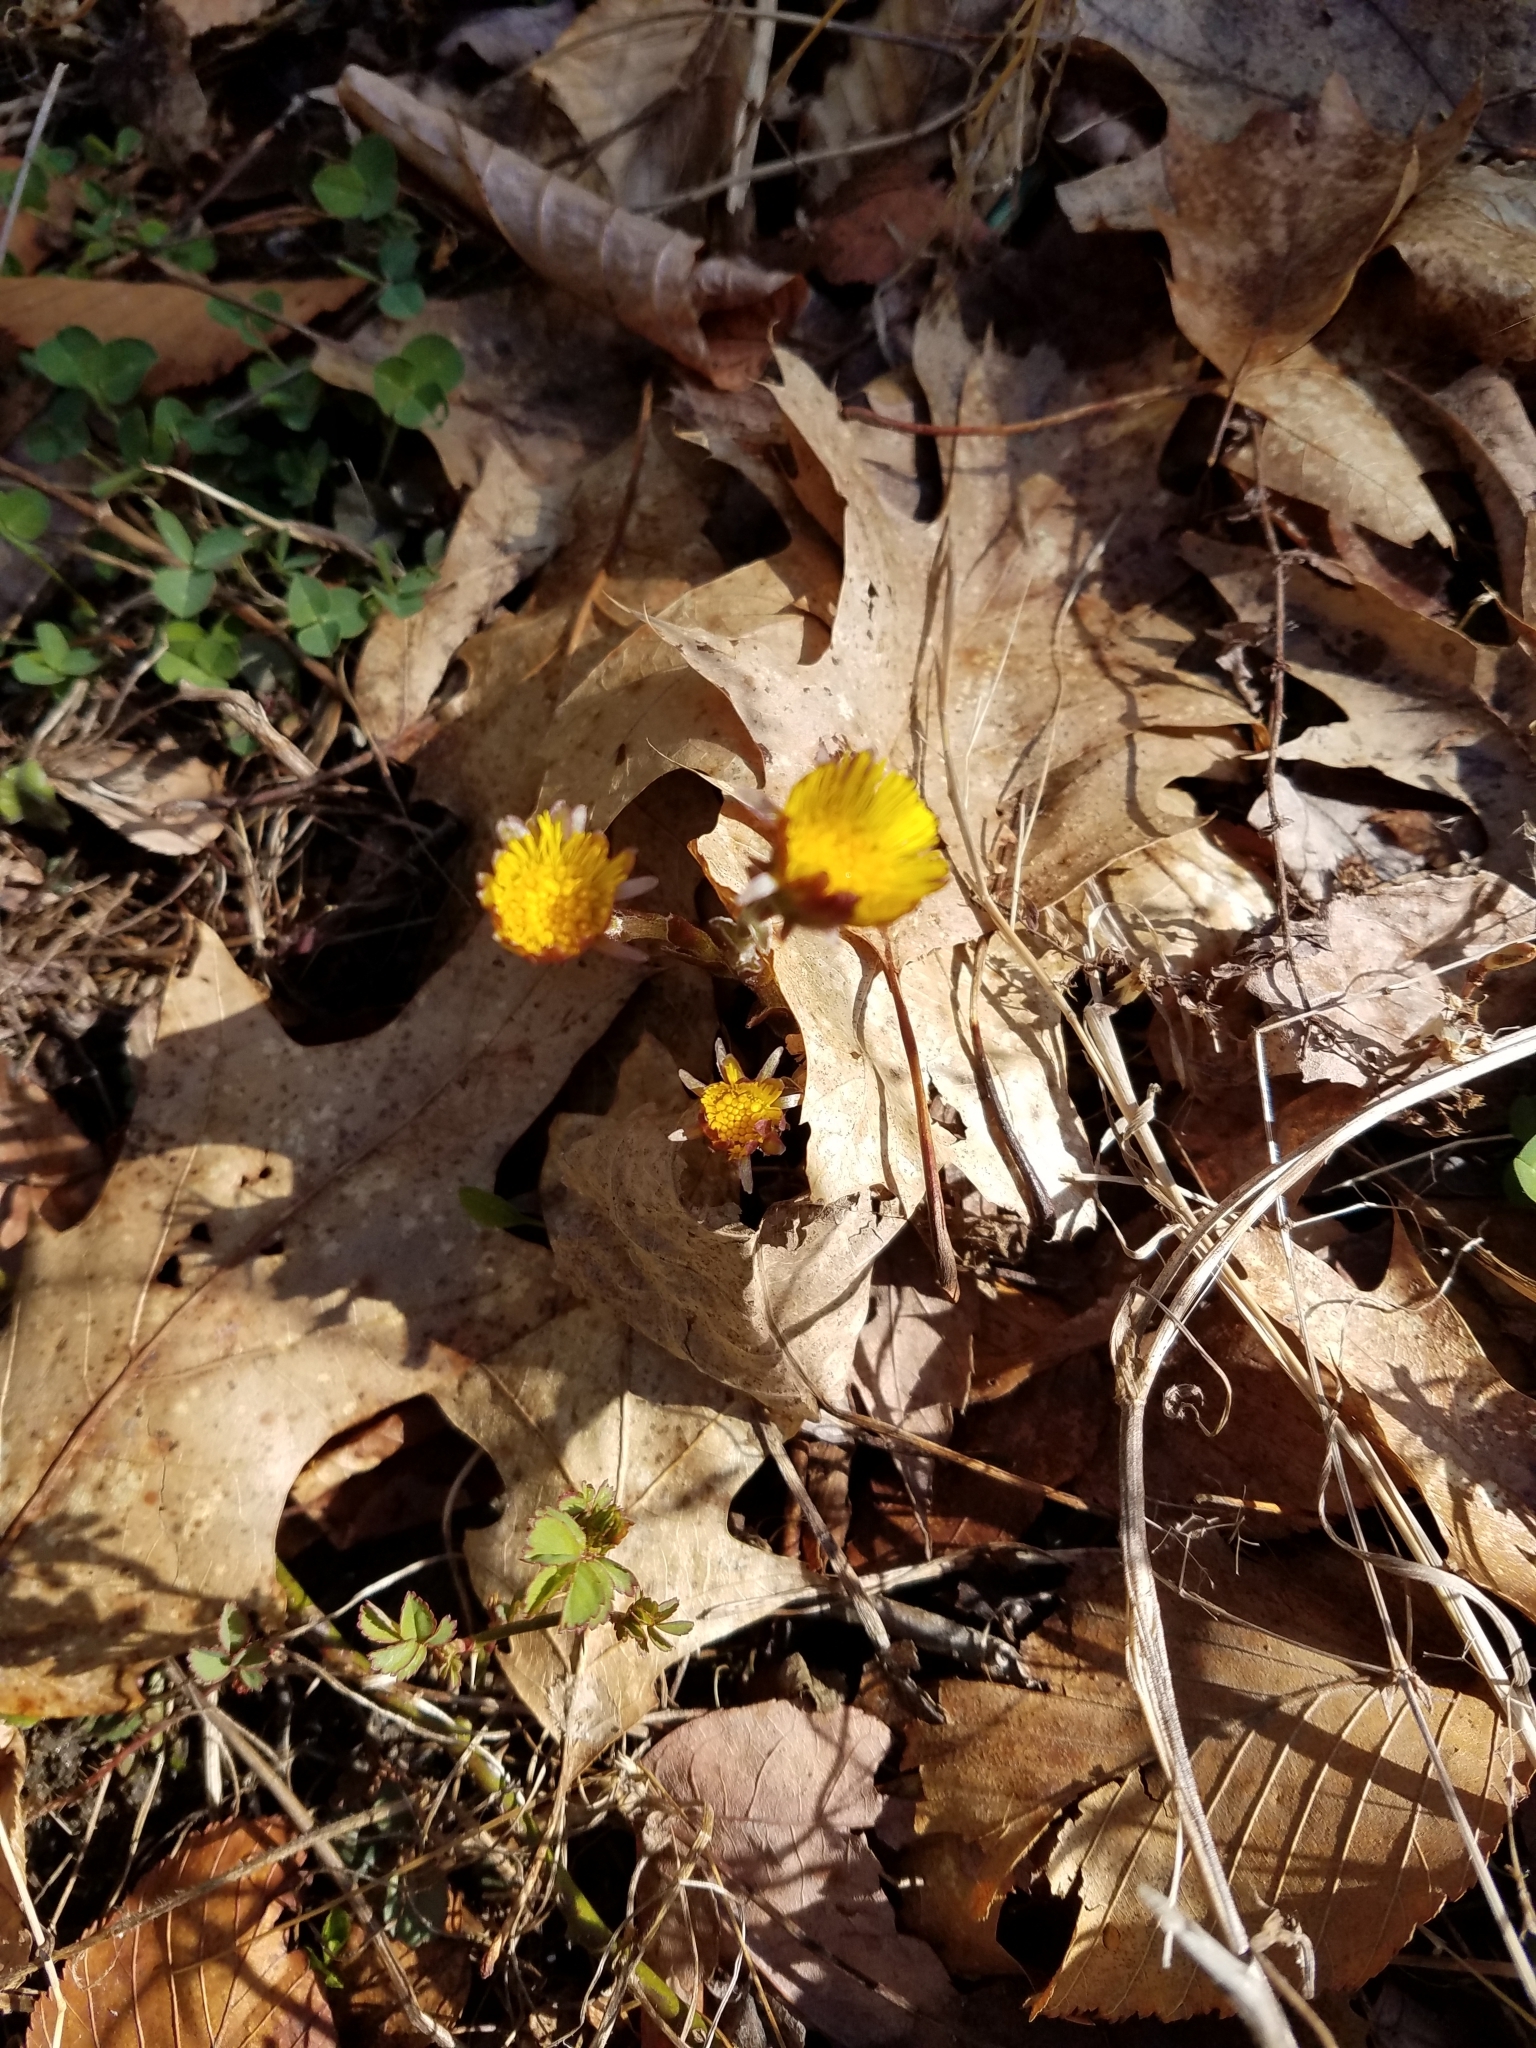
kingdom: Plantae
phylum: Tracheophyta
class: Magnoliopsida
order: Asterales
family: Asteraceae
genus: Tussilago
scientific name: Tussilago farfara
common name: Coltsfoot
